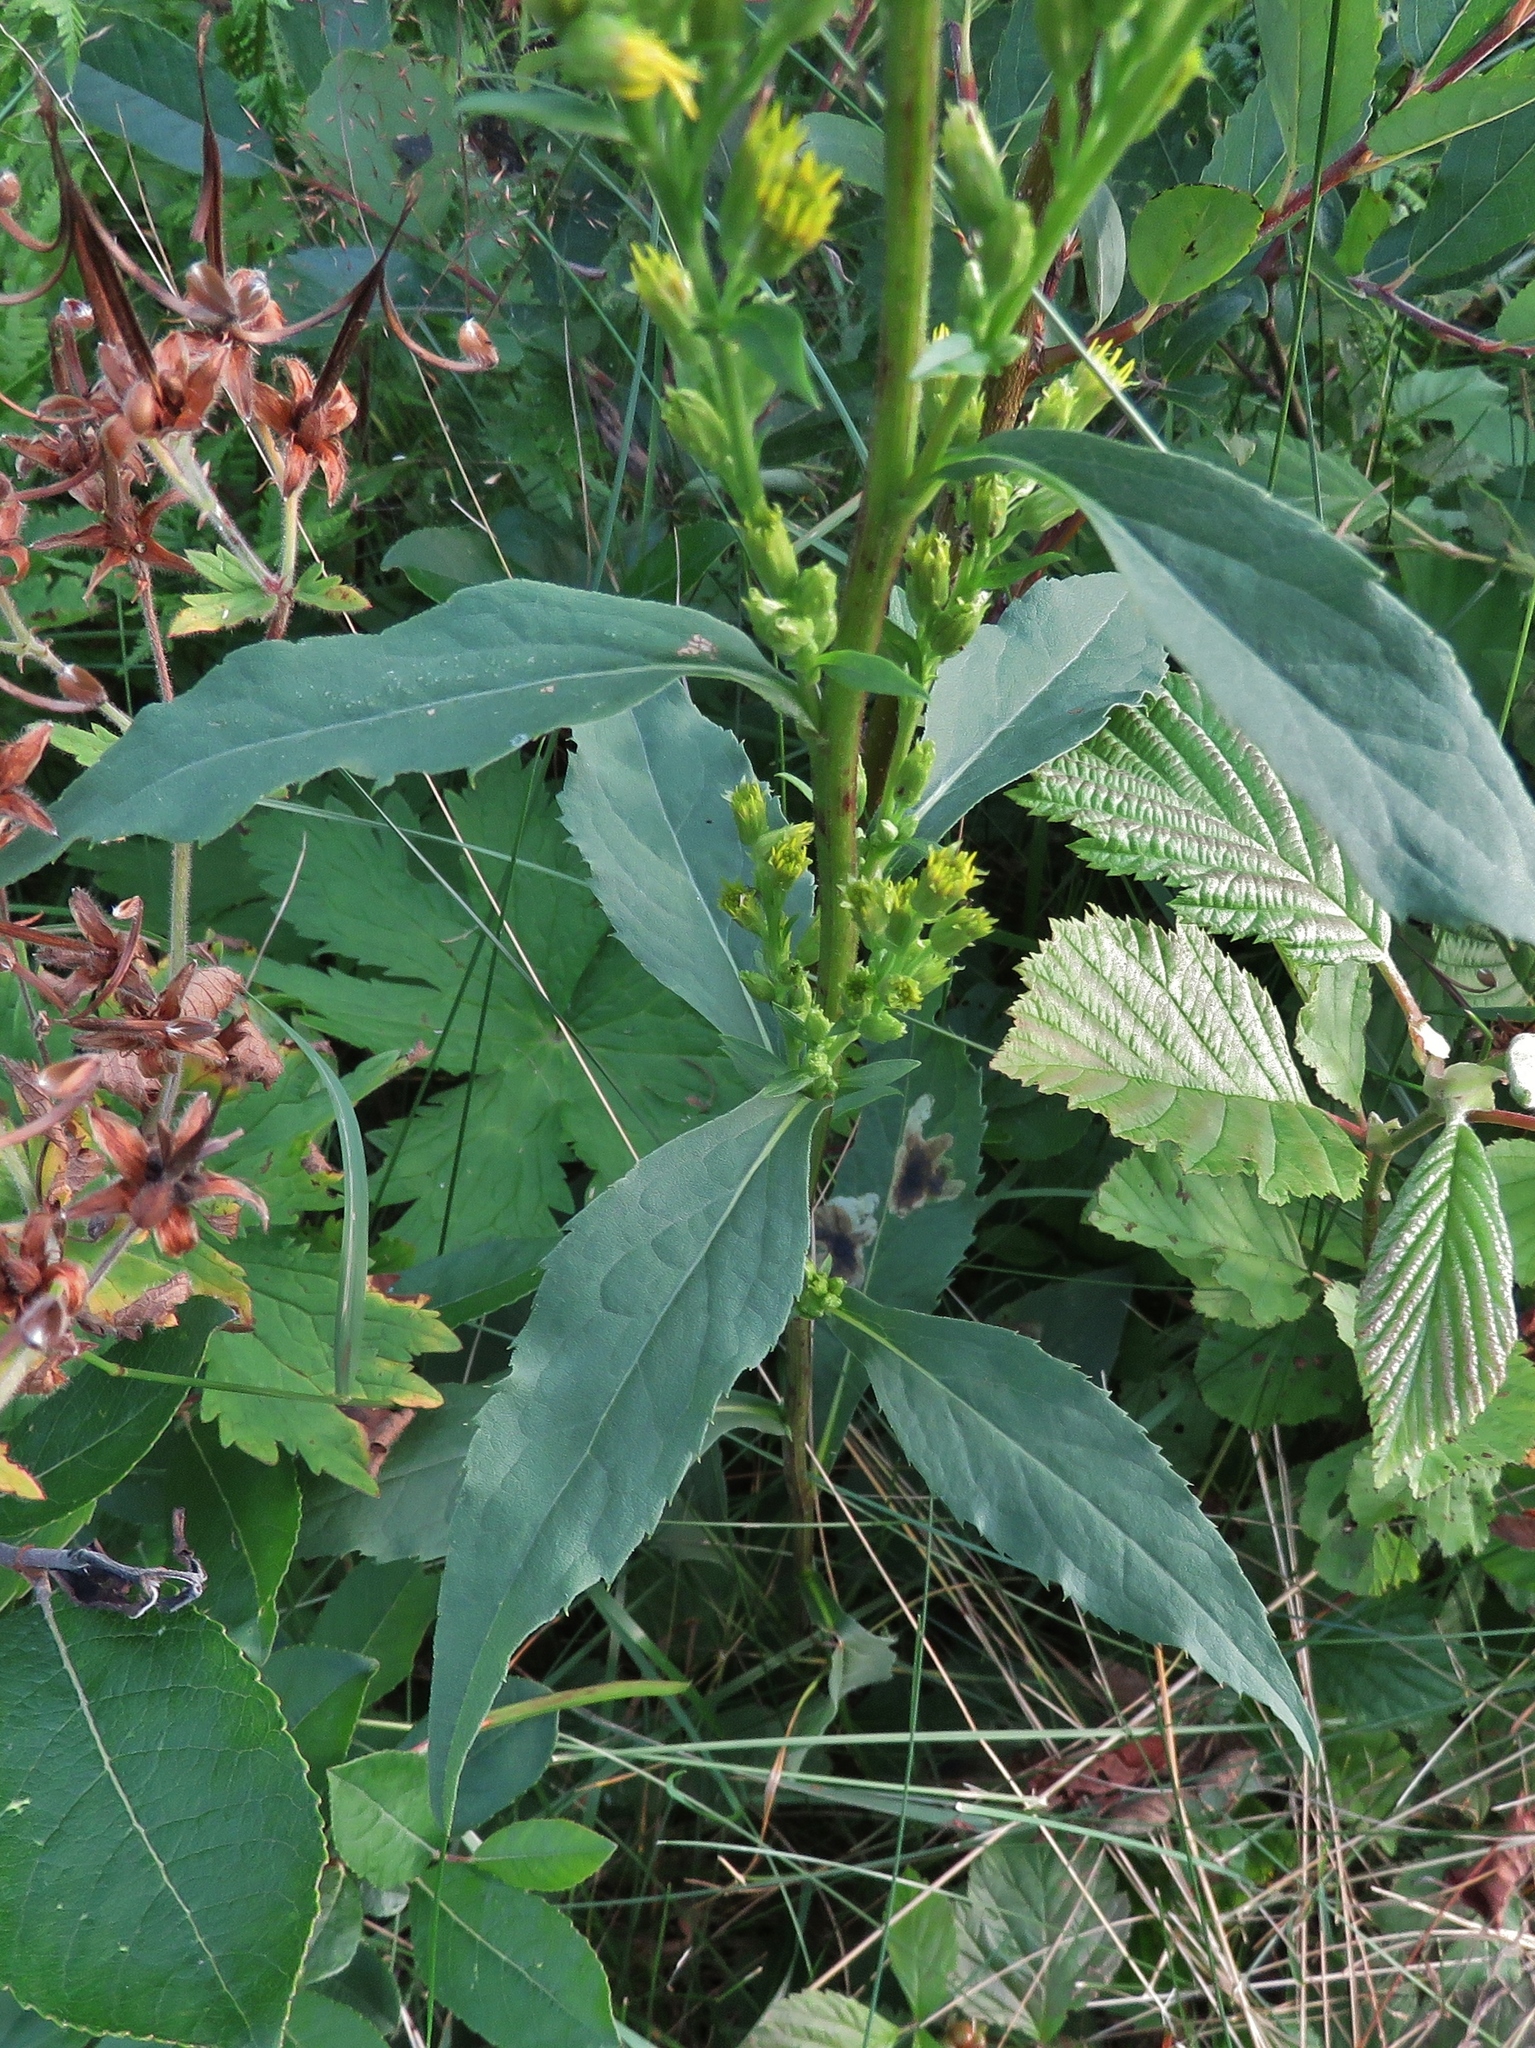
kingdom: Plantae
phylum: Tracheophyta
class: Magnoliopsida
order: Asterales
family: Asteraceae
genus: Solidago
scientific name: Solidago virgaurea
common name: Goldenrod
